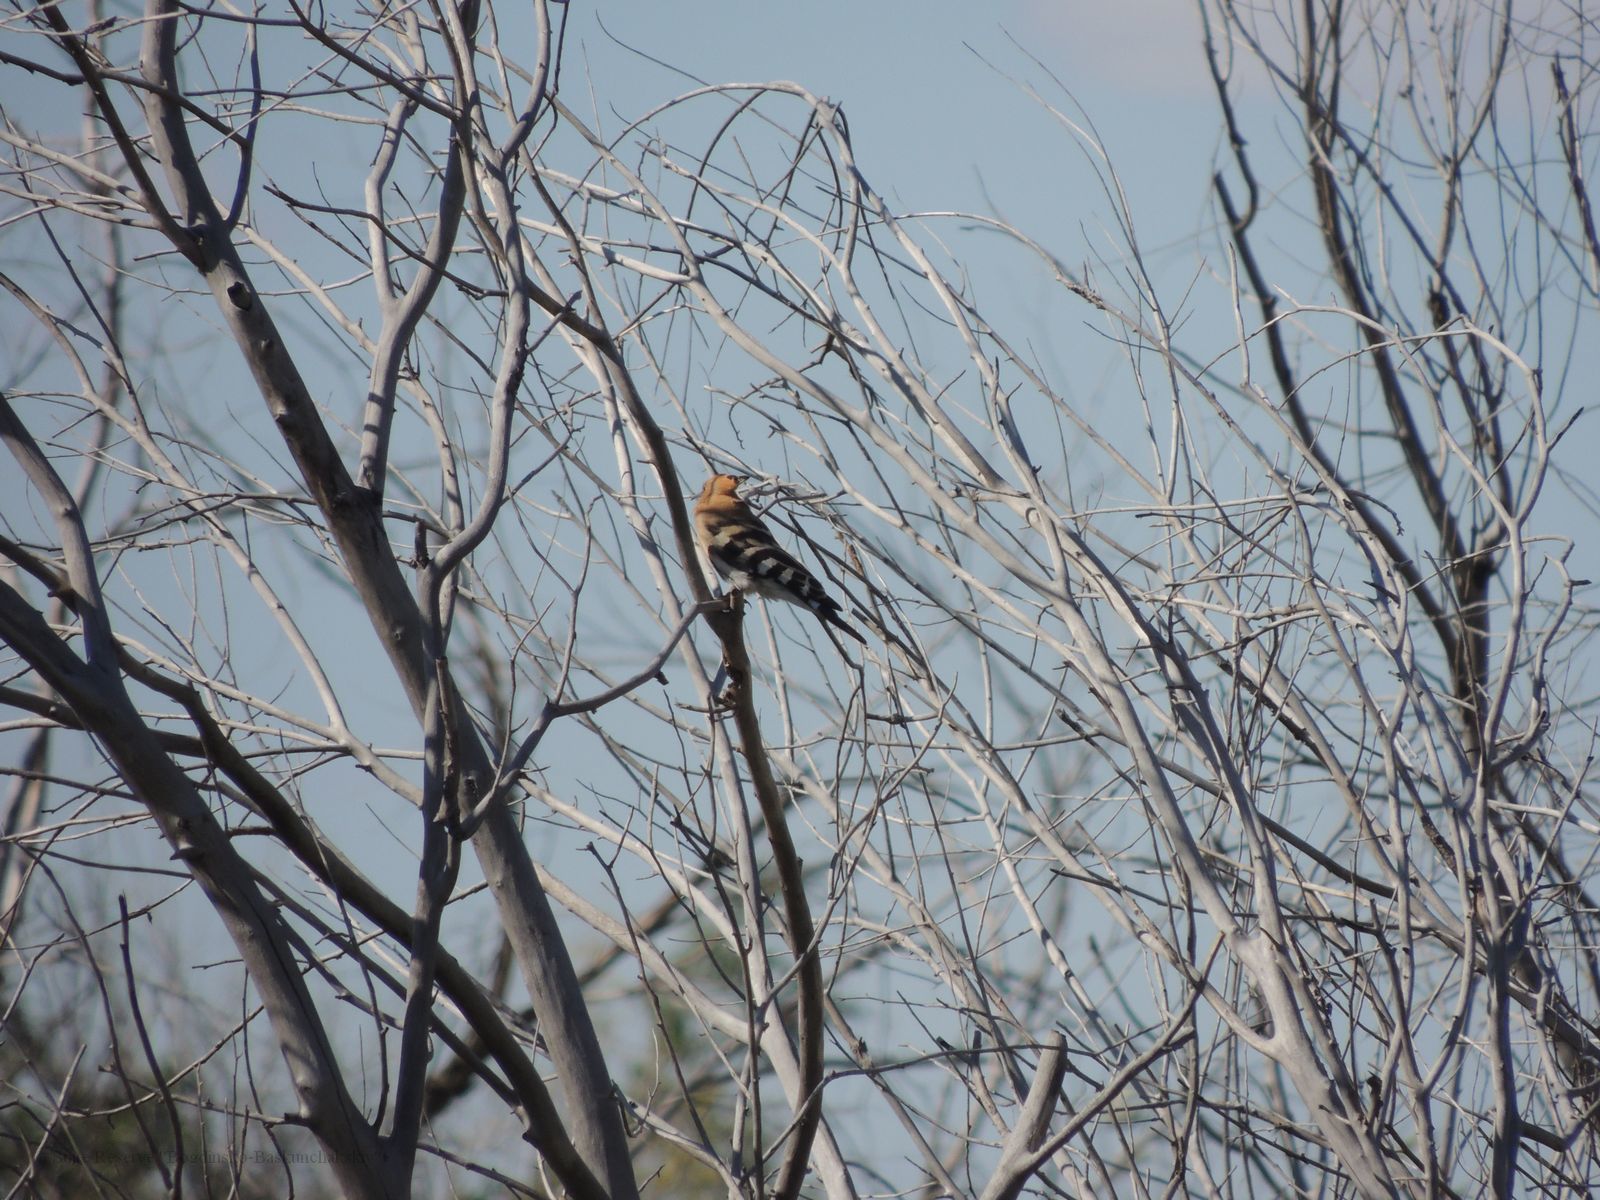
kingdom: Animalia
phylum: Chordata
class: Aves
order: Bucerotiformes
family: Upupidae
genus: Upupa
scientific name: Upupa epops
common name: Eurasian hoopoe
